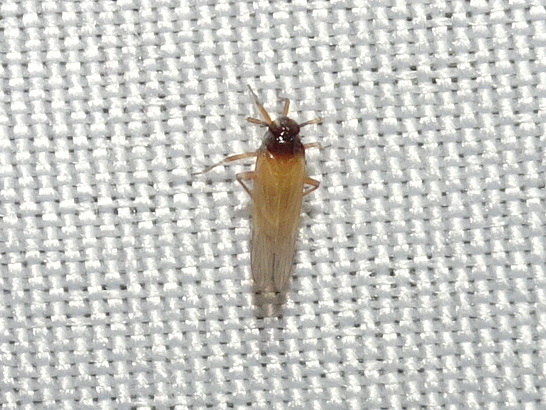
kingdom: Animalia
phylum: Arthropoda
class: Insecta
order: Hemiptera
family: Delphacidae
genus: Penepissonotus
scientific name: Penepissonotus bicolor
